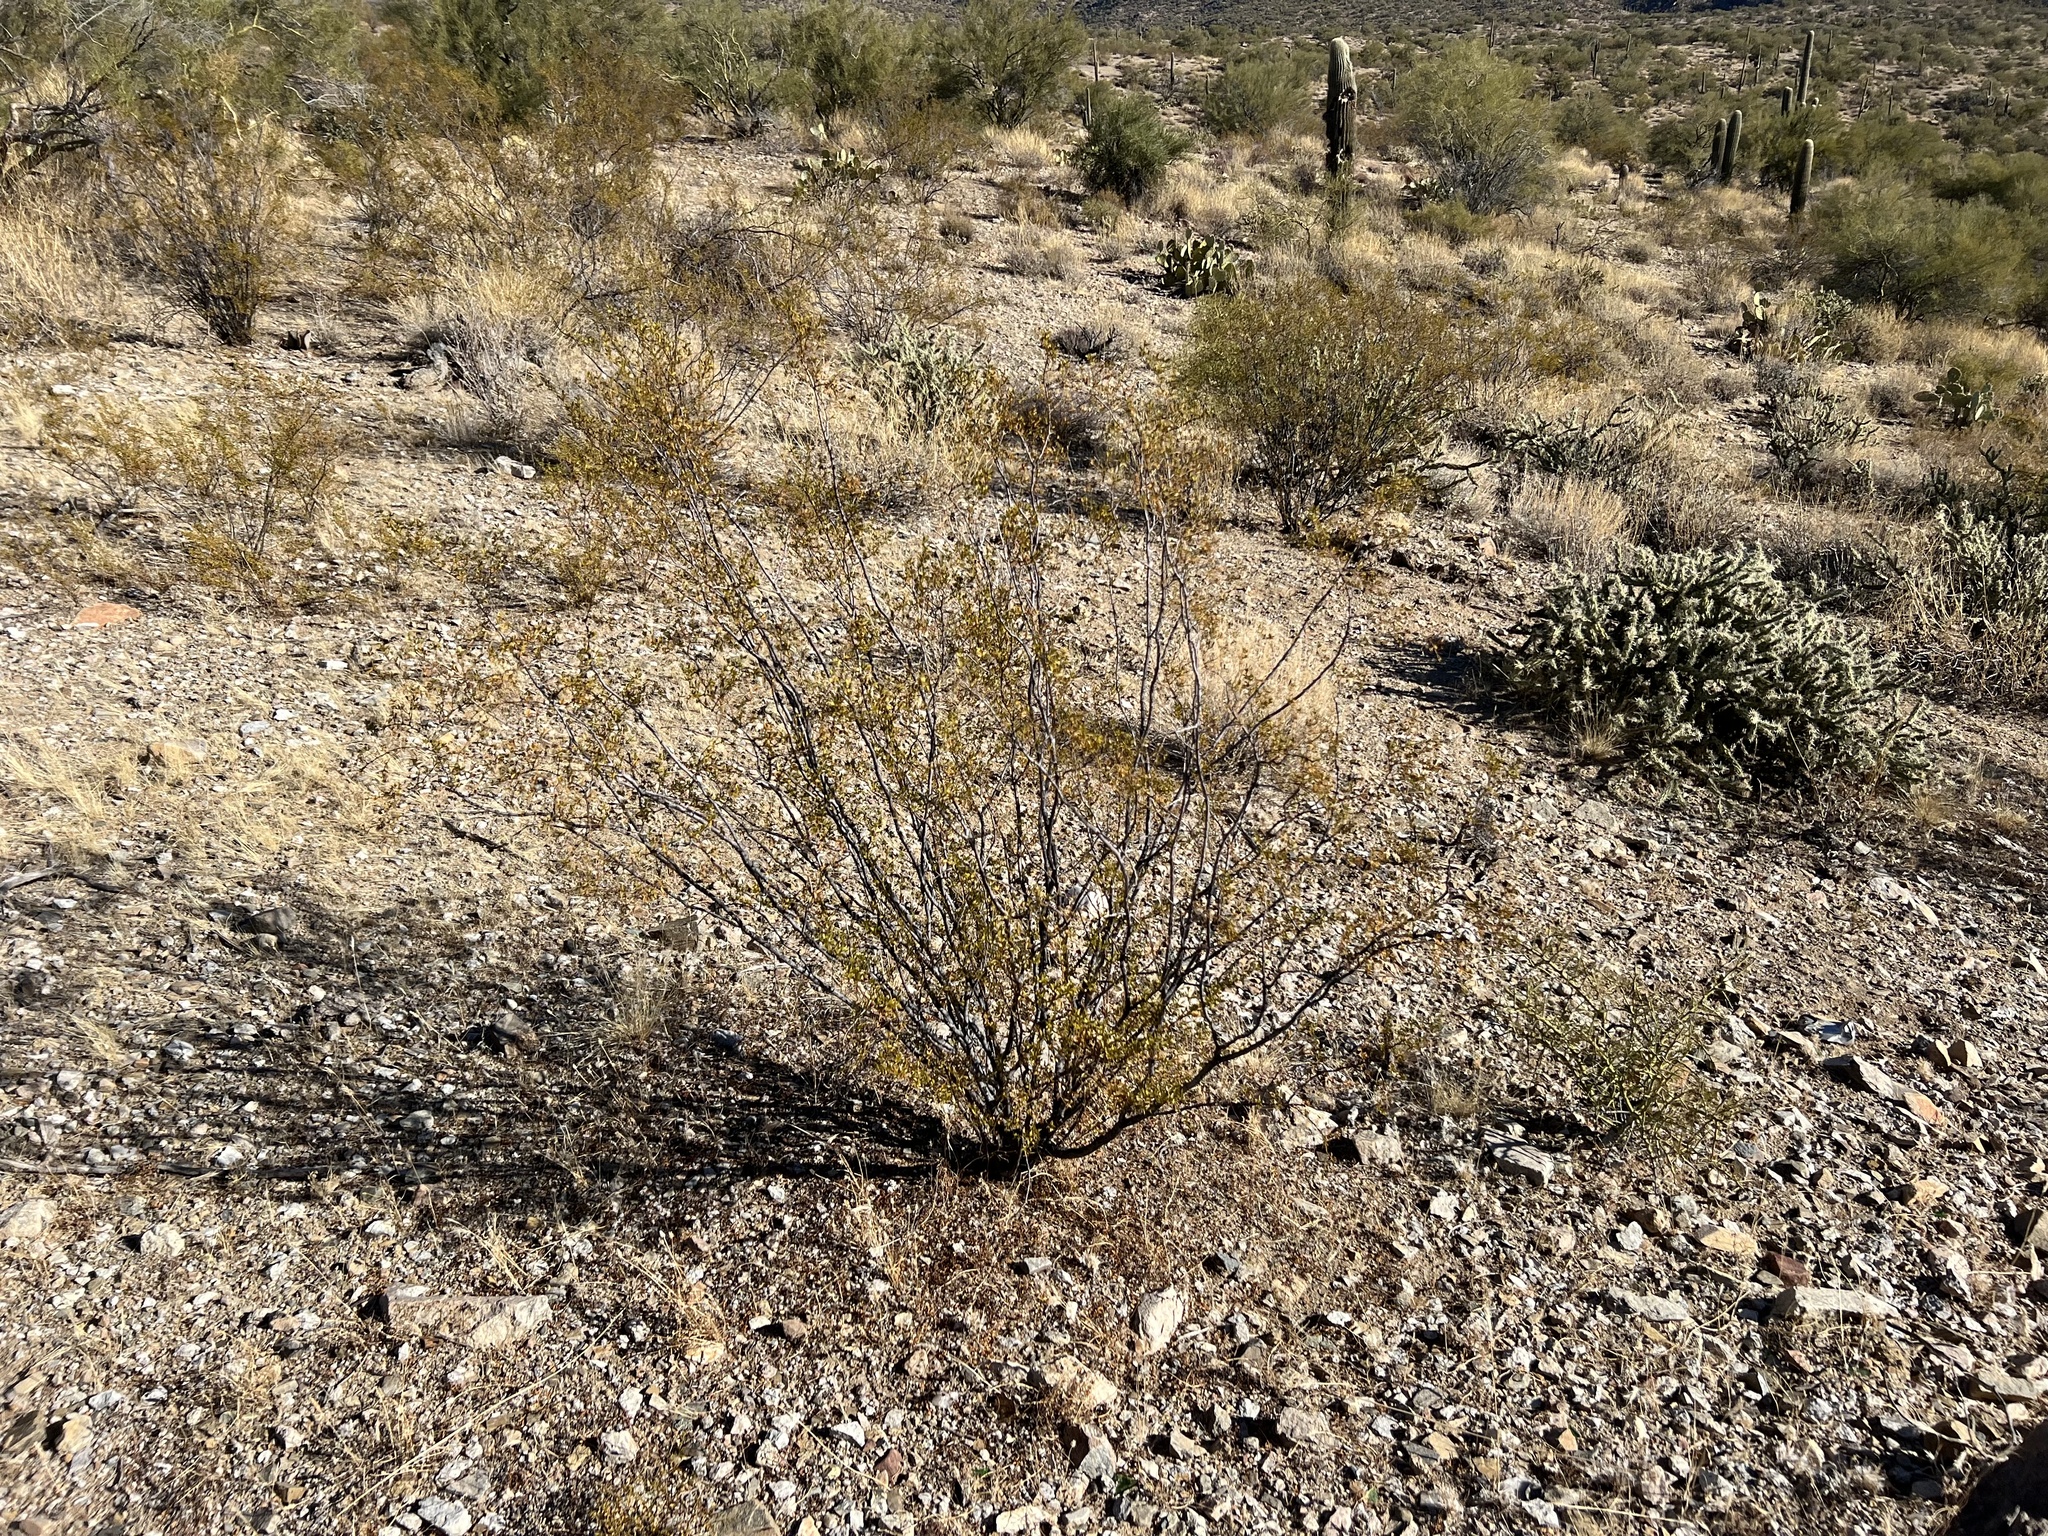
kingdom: Plantae
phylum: Tracheophyta
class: Magnoliopsida
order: Zygophyllales
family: Zygophyllaceae
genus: Larrea
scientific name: Larrea tridentata
